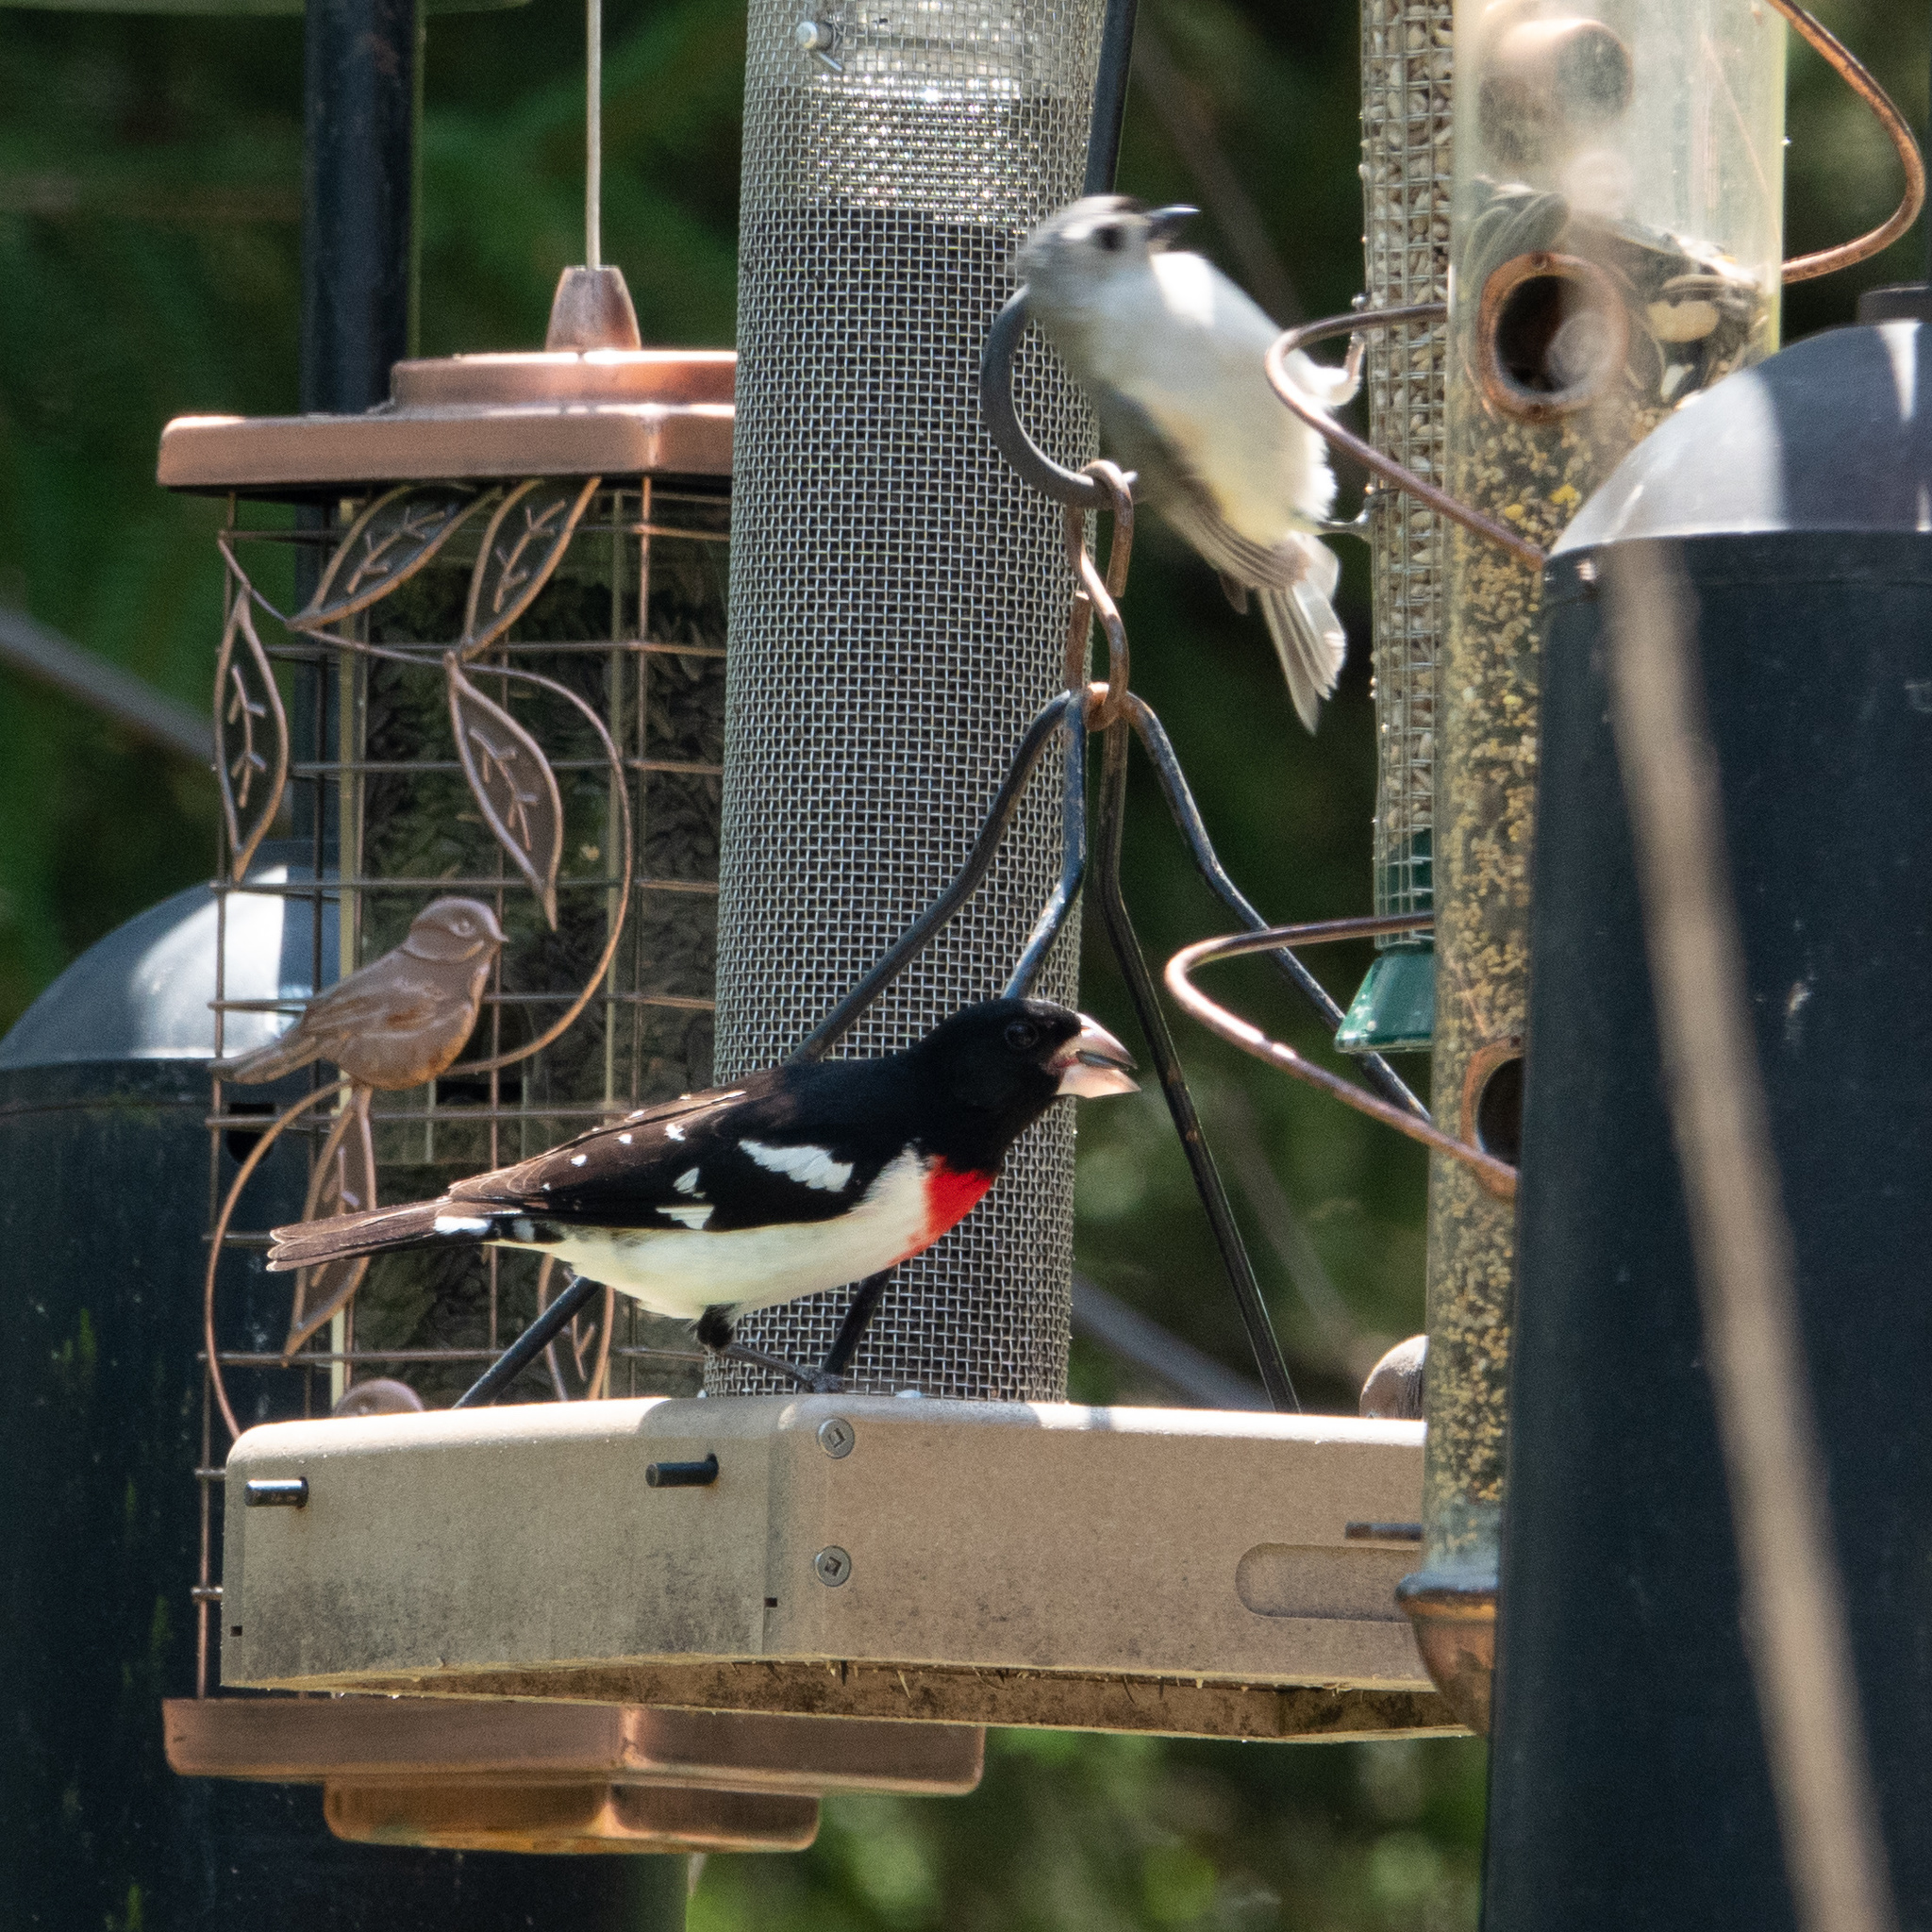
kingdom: Animalia
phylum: Chordata
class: Aves
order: Passeriformes
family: Cardinalidae
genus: Pheucticus
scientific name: Pheucticus ludovicianus
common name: Rose-breasted grosbeak
